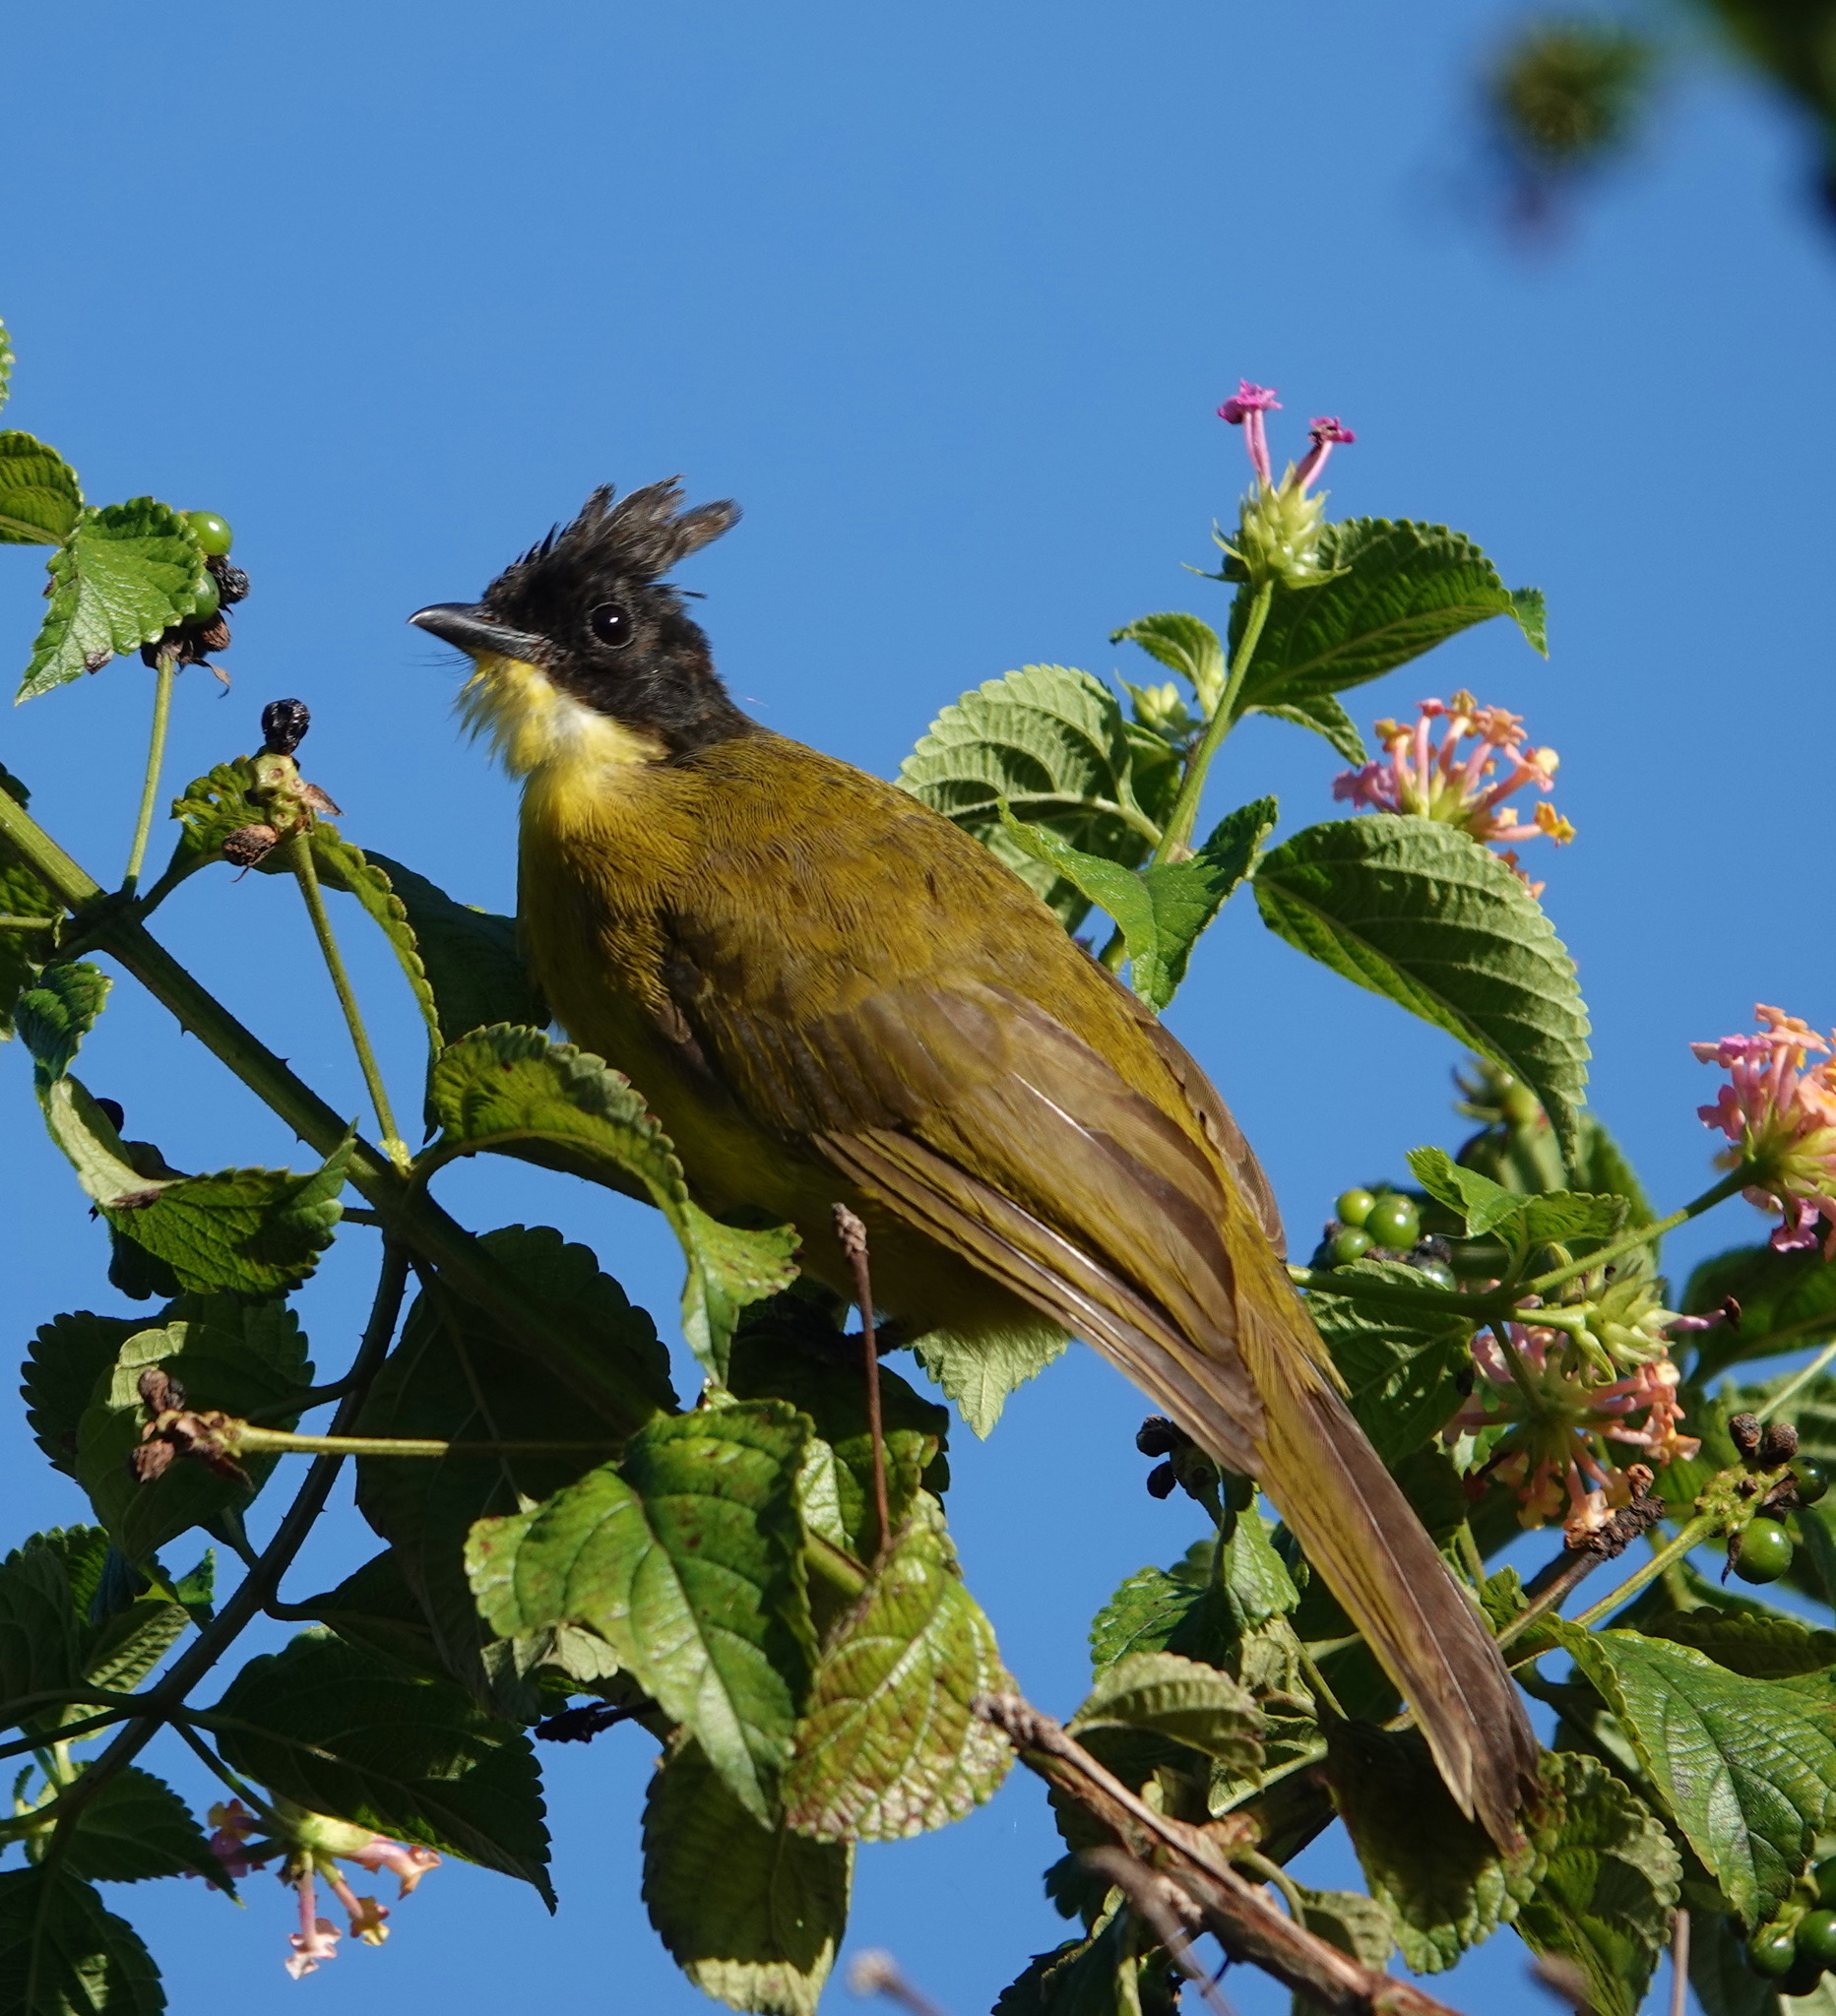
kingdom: Animalia
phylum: Chordata
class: Aves
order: Passeriformes
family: Pycnonotidae
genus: Pycnonotus
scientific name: Pycnonotus montis
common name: Bornean bulbul
